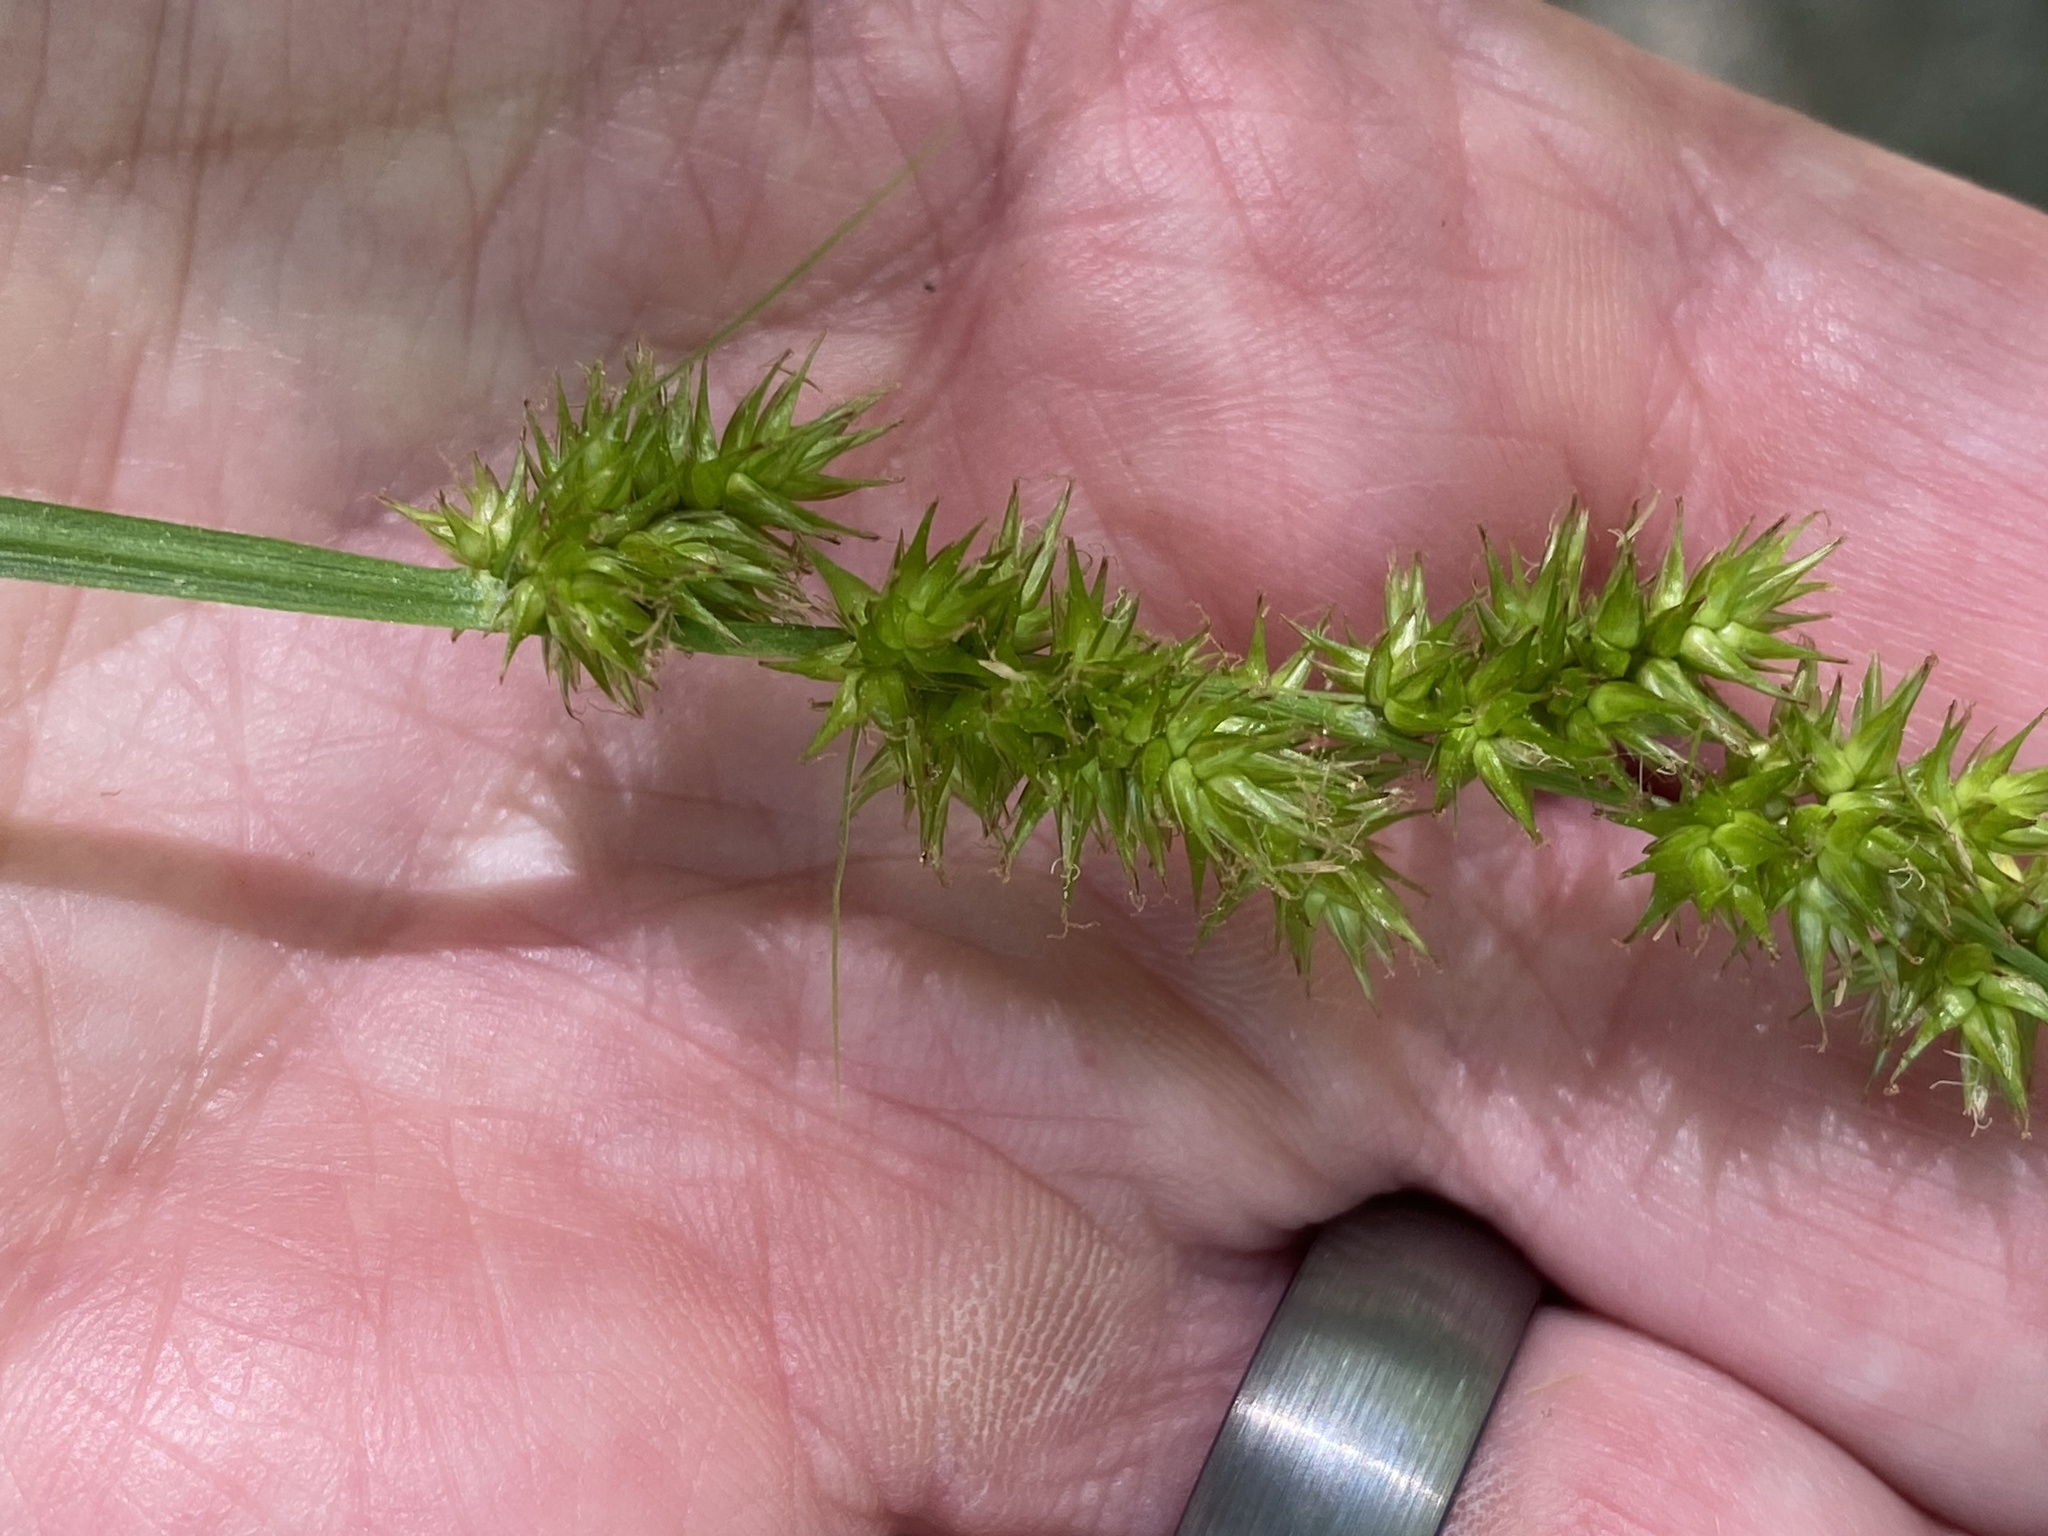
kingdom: Plantae
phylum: Tracheophyta
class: Liliopsida
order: Poales
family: Cyperaceae
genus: Carex
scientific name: Carex stipata
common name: Awl-fruited sedge
